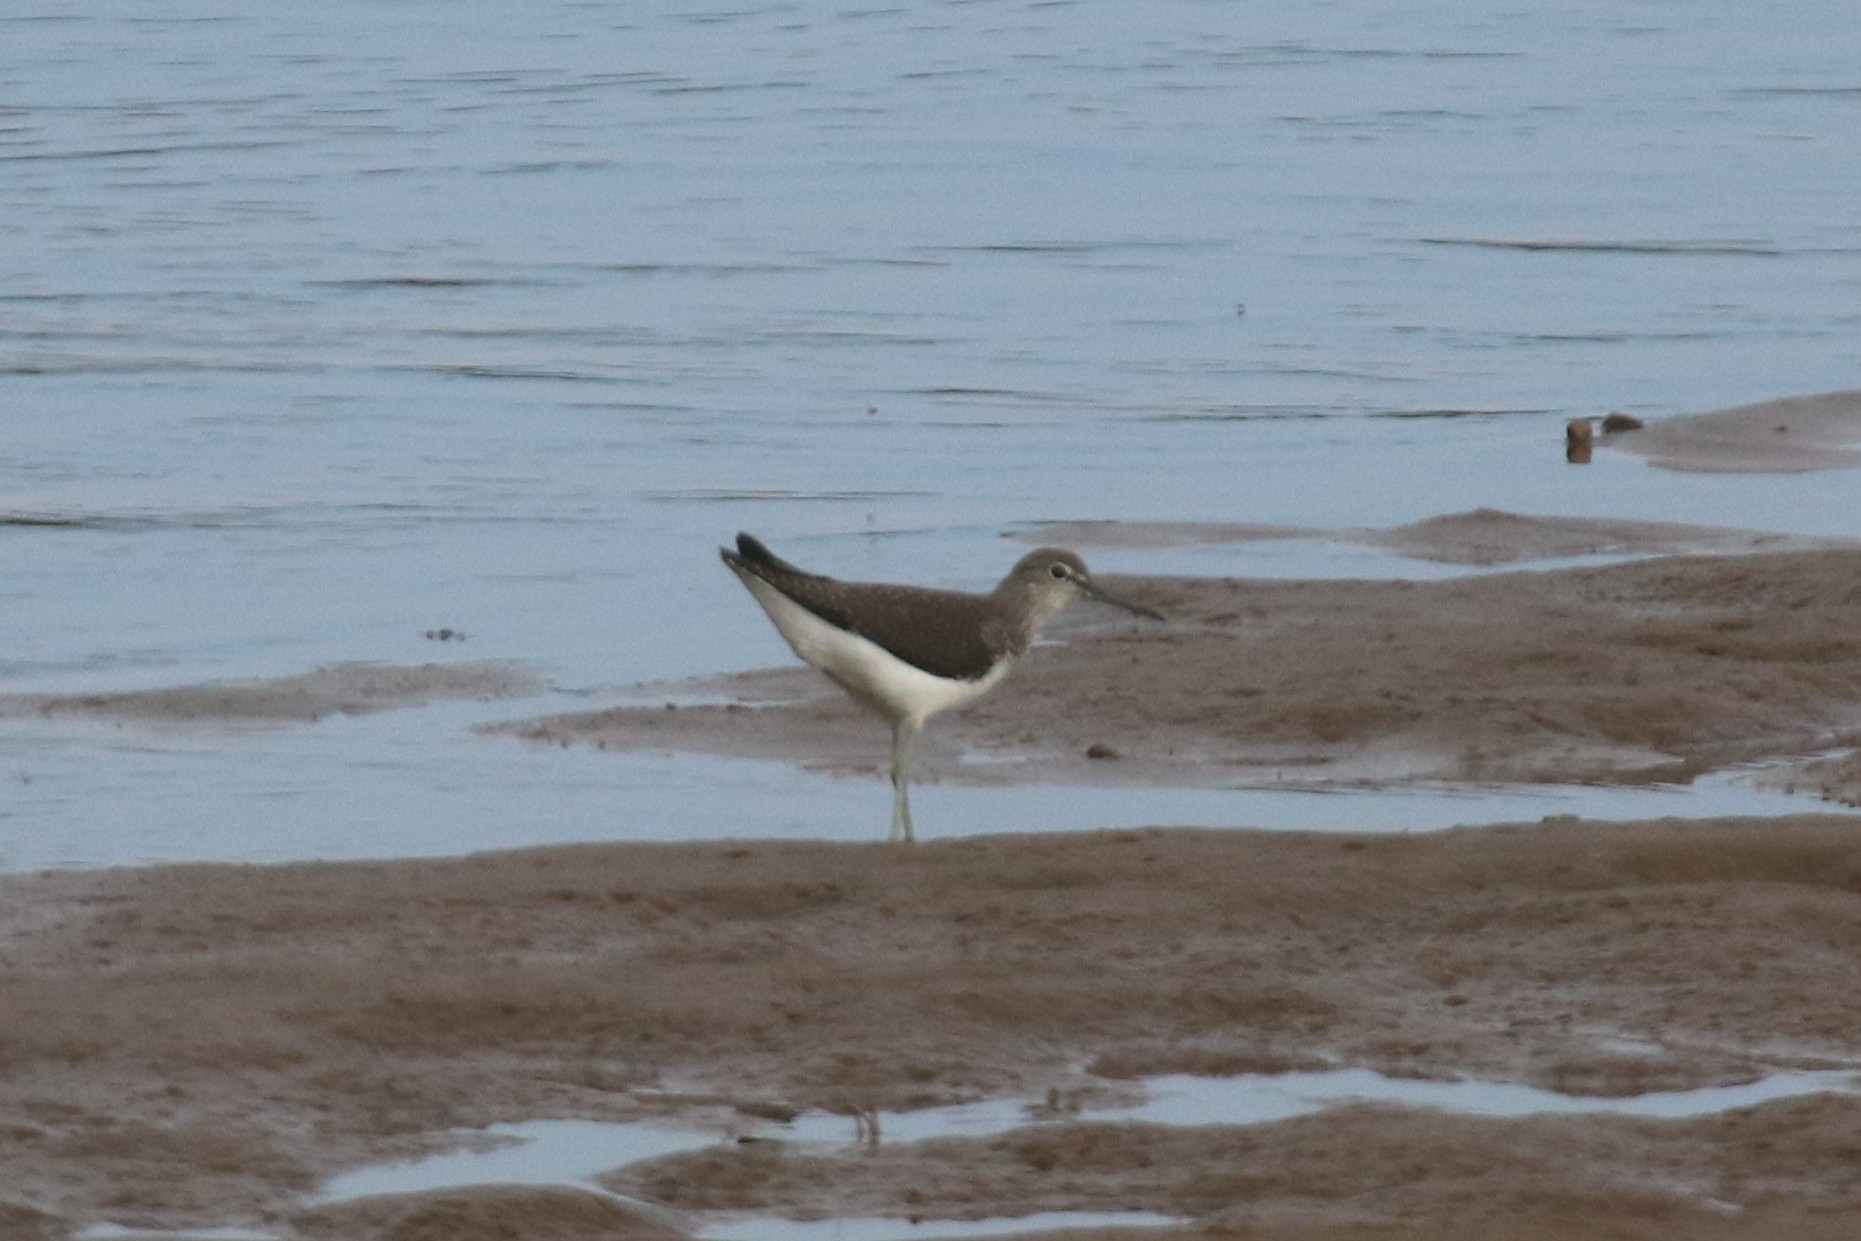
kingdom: Animalia
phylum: Chordata
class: Aves
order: Charadriiformes
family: Scolopacidae
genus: Tringa
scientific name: Tringa ochropus
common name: Green sandpiper
